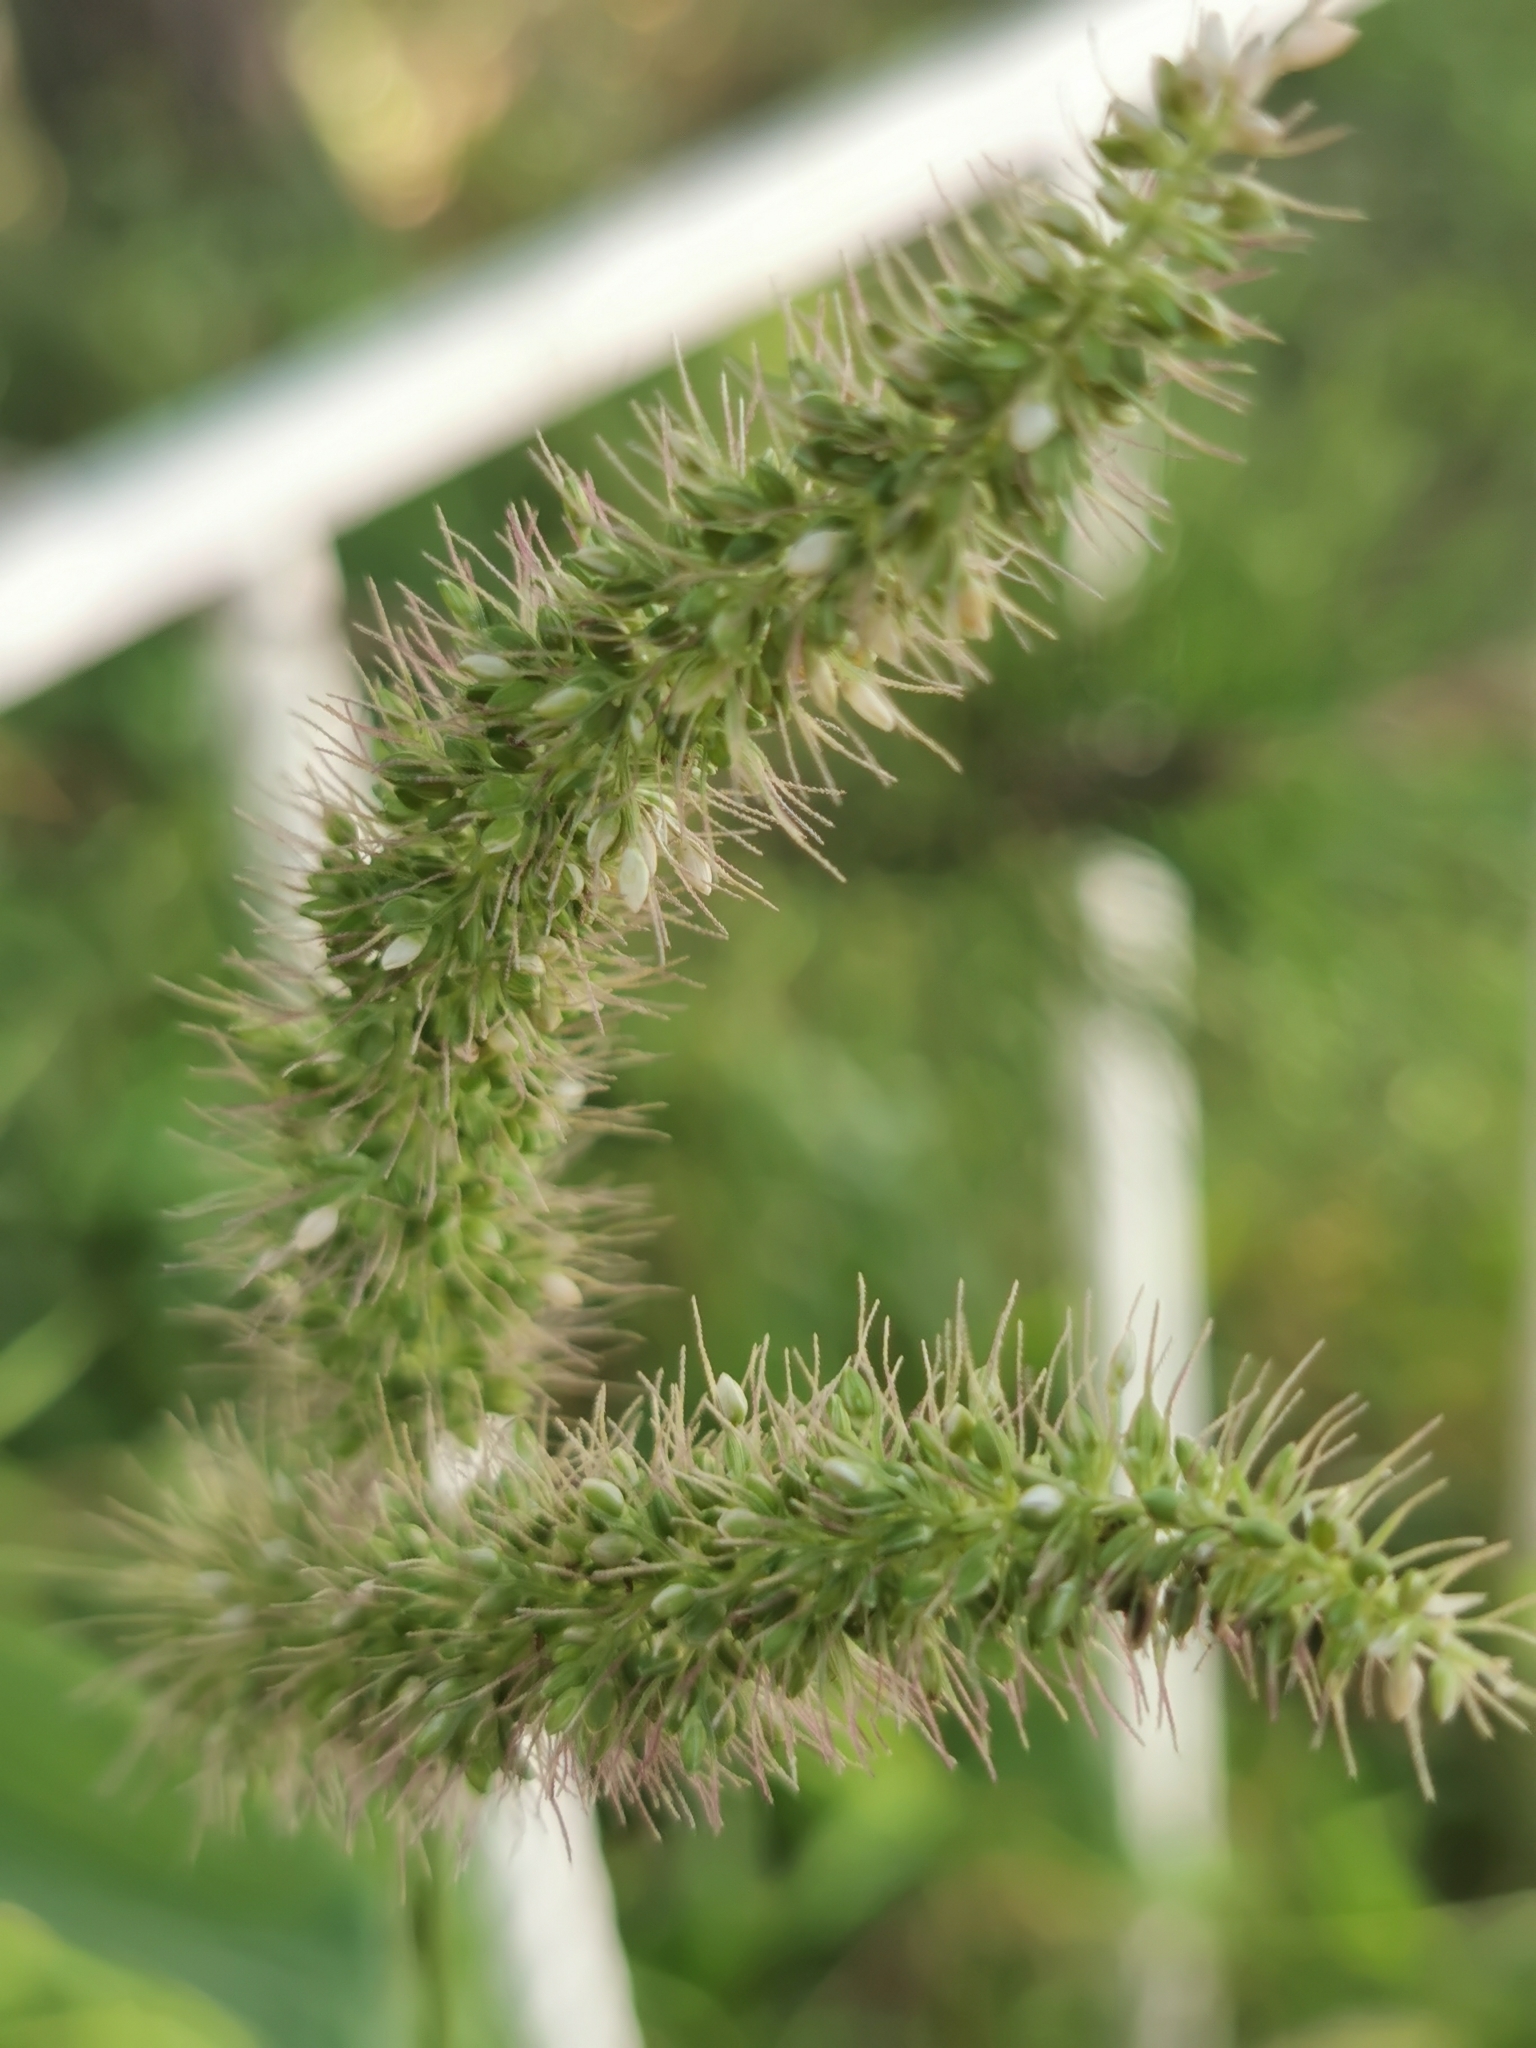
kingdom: Plantae
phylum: Tracheophyta
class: Liliopsida
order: Poales
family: Poaceae
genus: Setaria
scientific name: Setaria adhaerens
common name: Adherent bristle-grass
